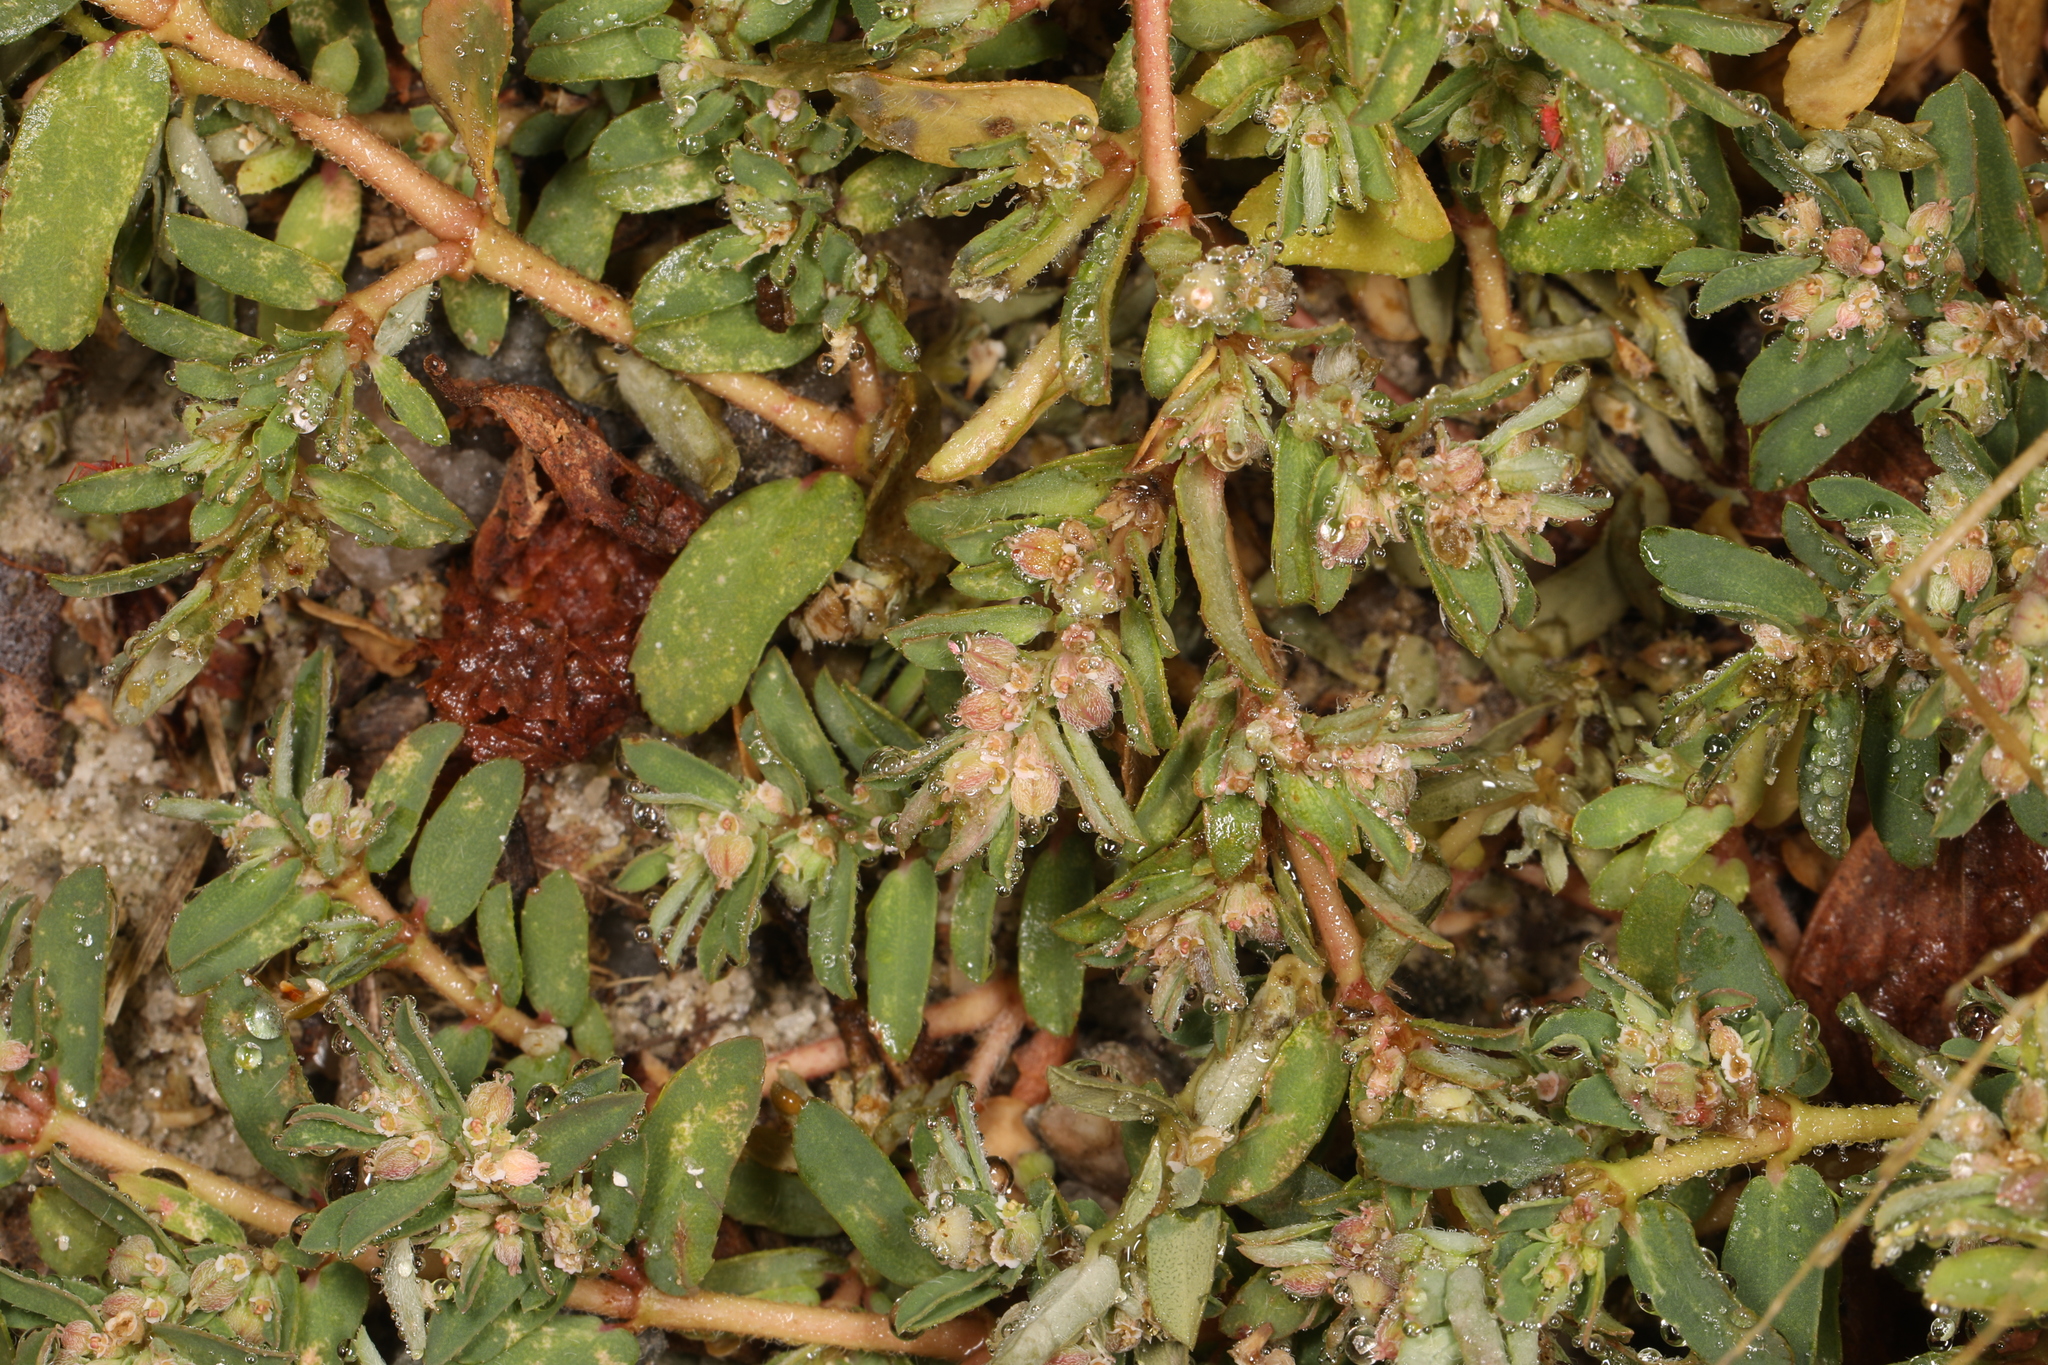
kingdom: Plantae
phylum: Tracheophyta
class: Magnoliopsida
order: Malpighiales
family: Euphorbiaceae
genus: Euphorbia
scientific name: Euphorbia maculata
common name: Spotted spurge
